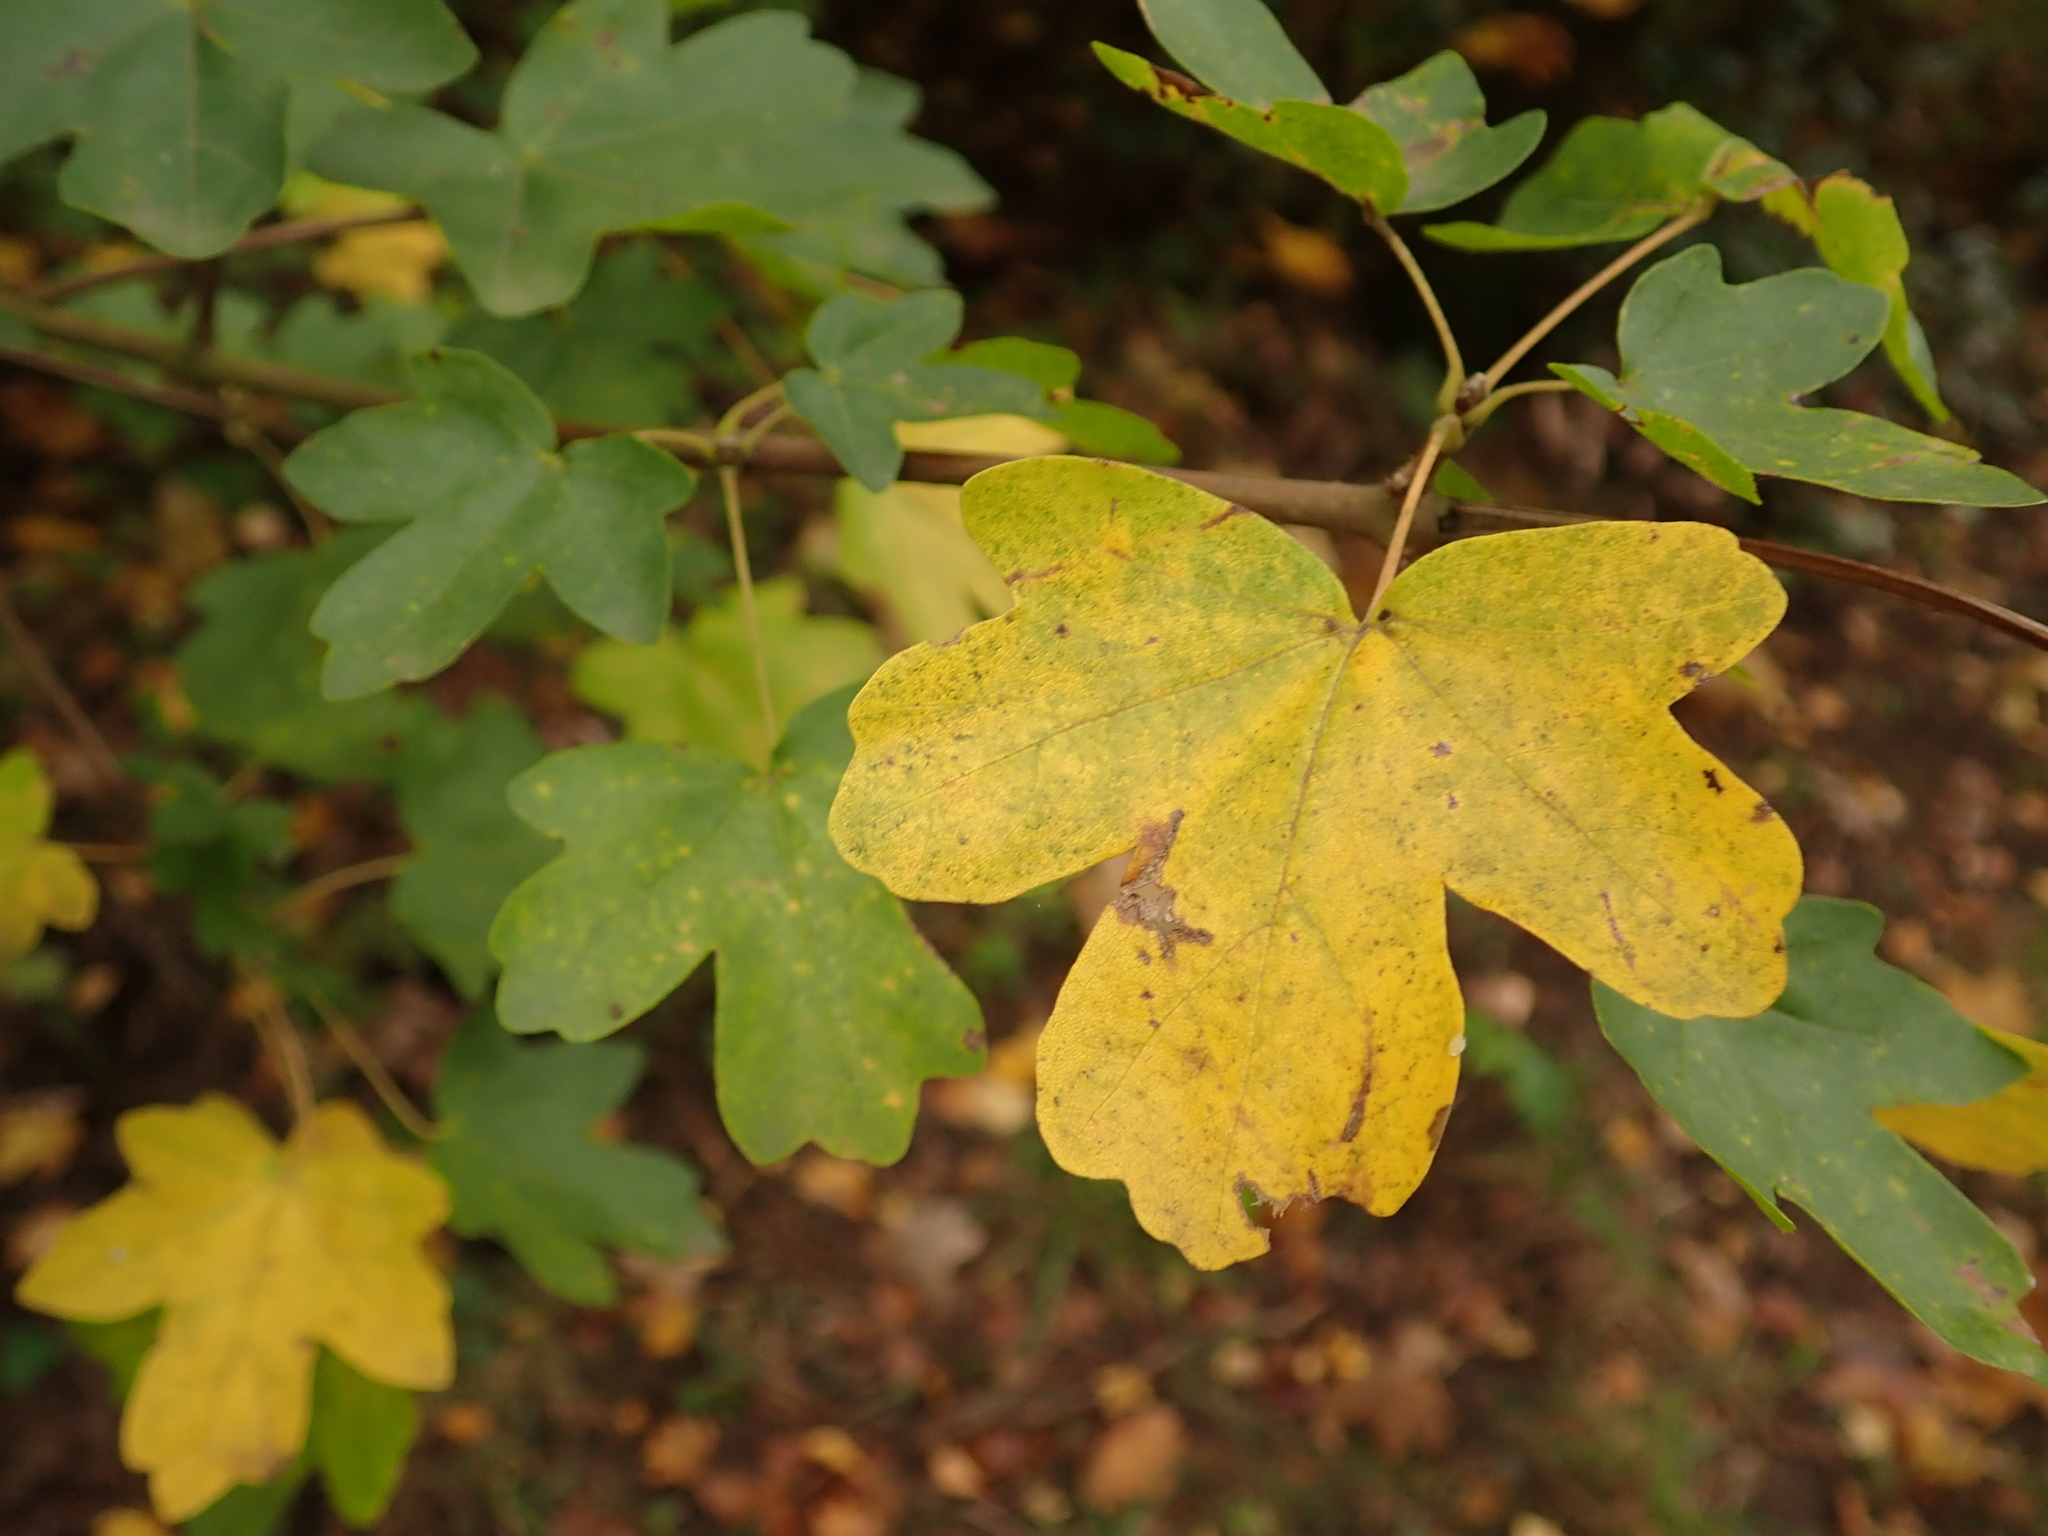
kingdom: Plantae
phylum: Tracheophyta
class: Magnoliopsida
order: Sapindales
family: Sapindaceae
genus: Acer
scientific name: Acer campestre
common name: Field maple
